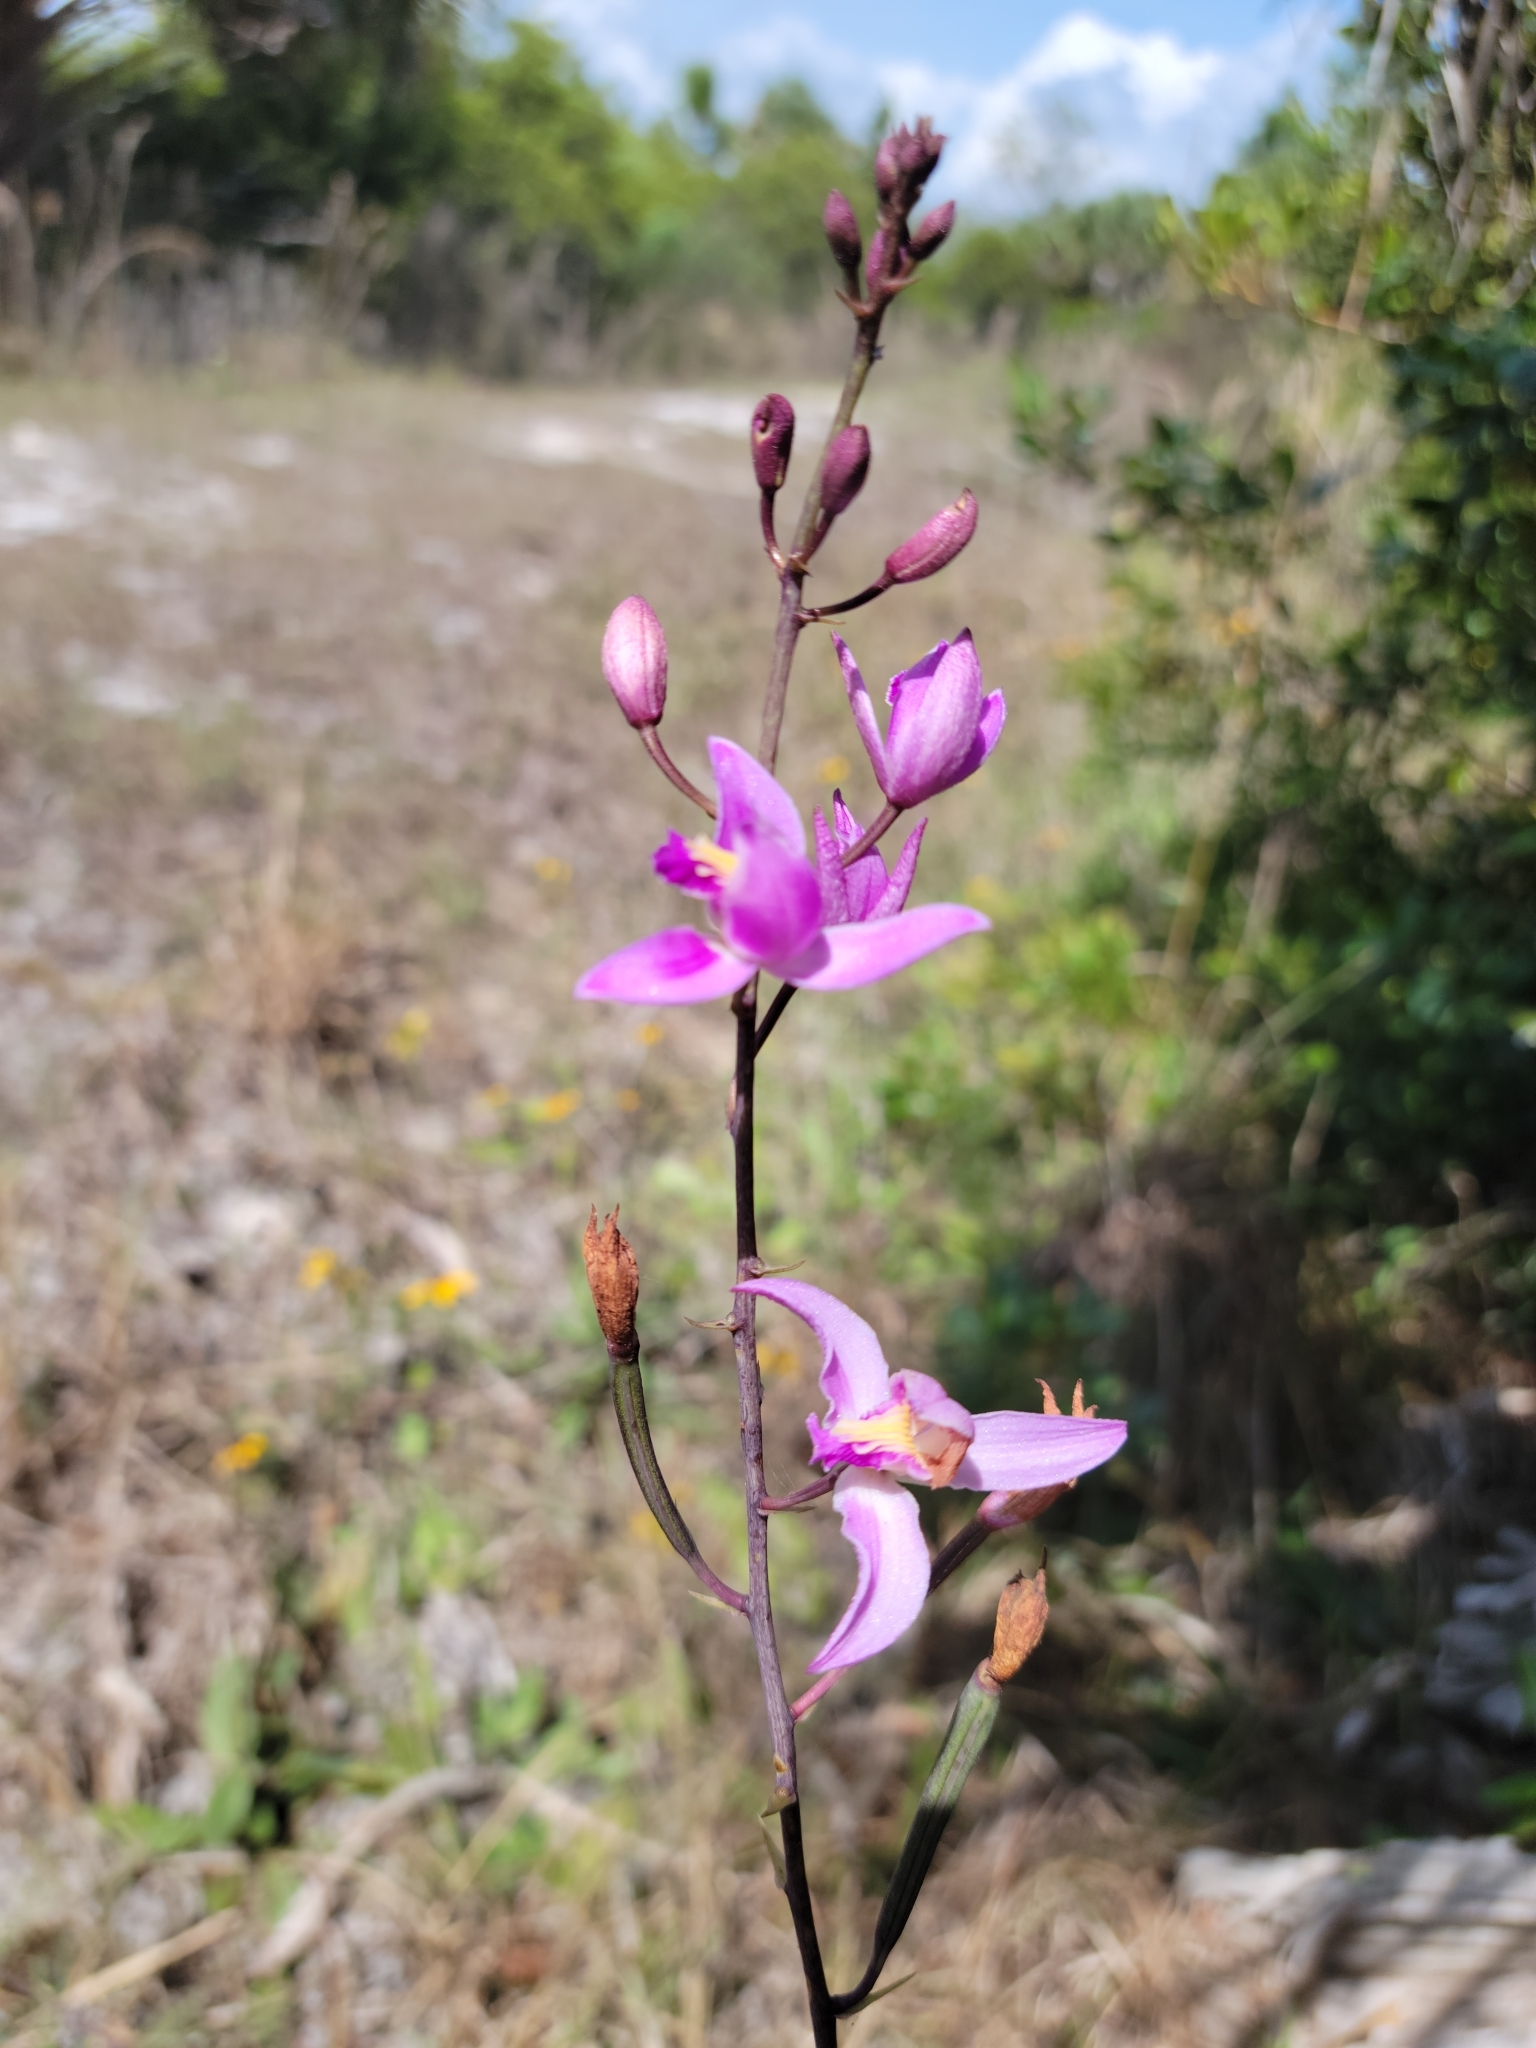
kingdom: Plantae
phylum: Tracheophyta
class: Liliopsida
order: Asparagales
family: Orchidaceae
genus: Bletia
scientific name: Bletia purpurea
